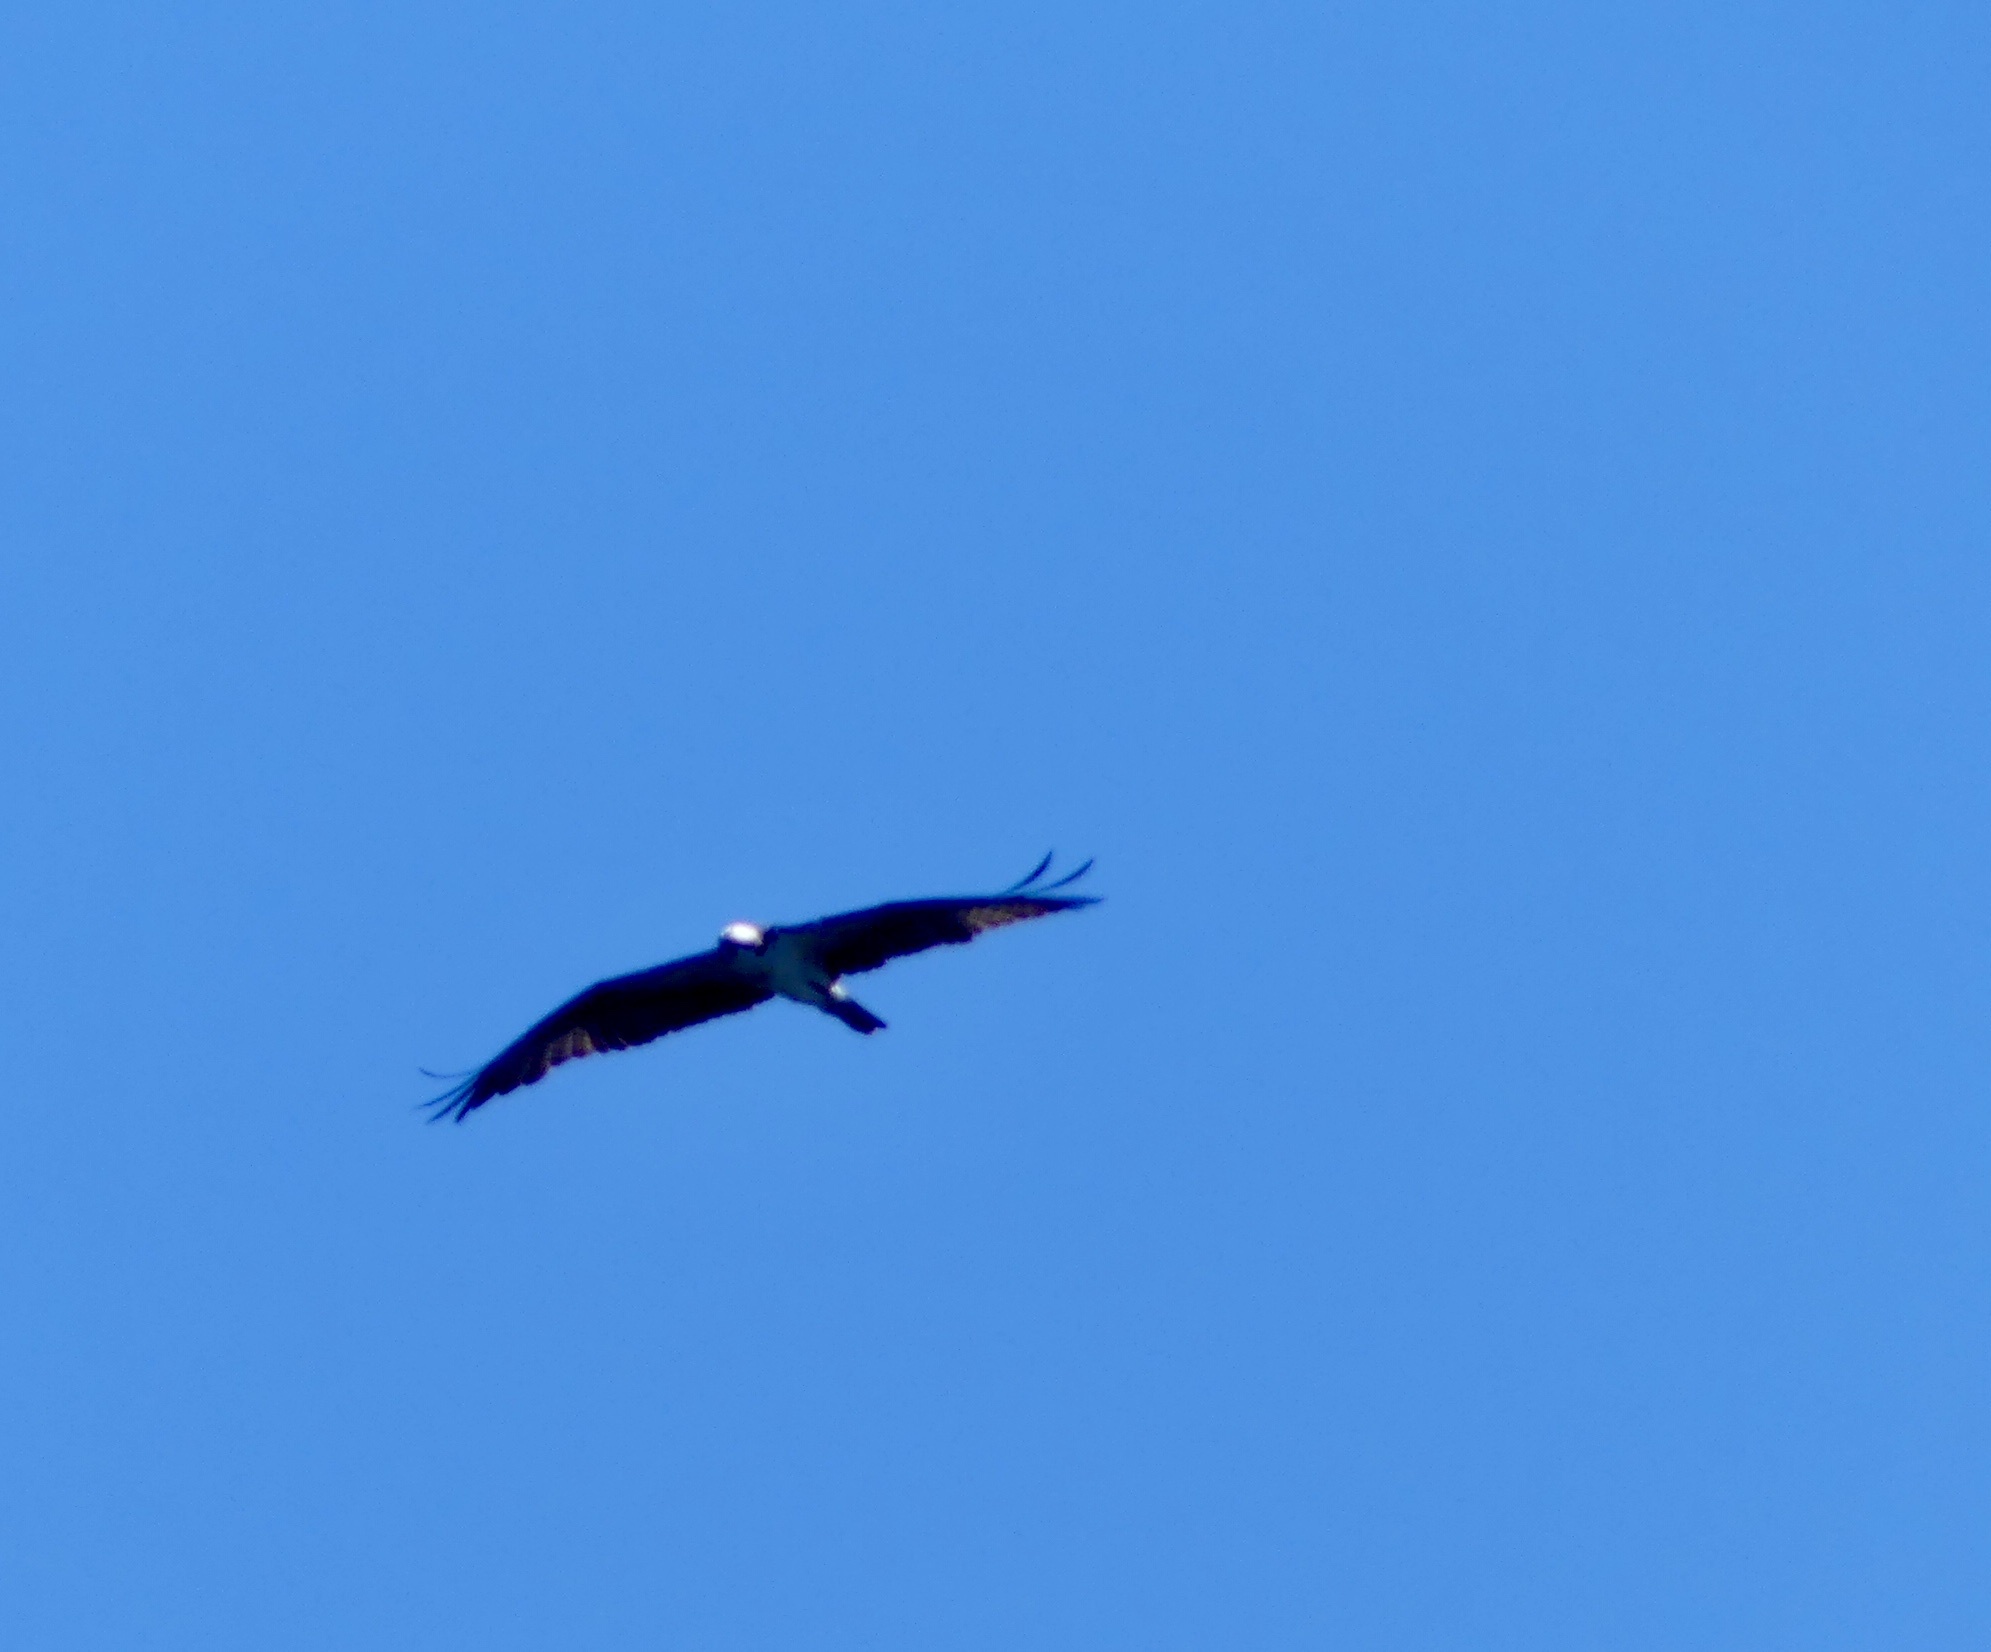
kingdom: Animalia
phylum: Chordata
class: Aves
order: Accipitriformes
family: Pandionidae
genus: Pandion
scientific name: Pandion haliaetus
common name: Osprey
